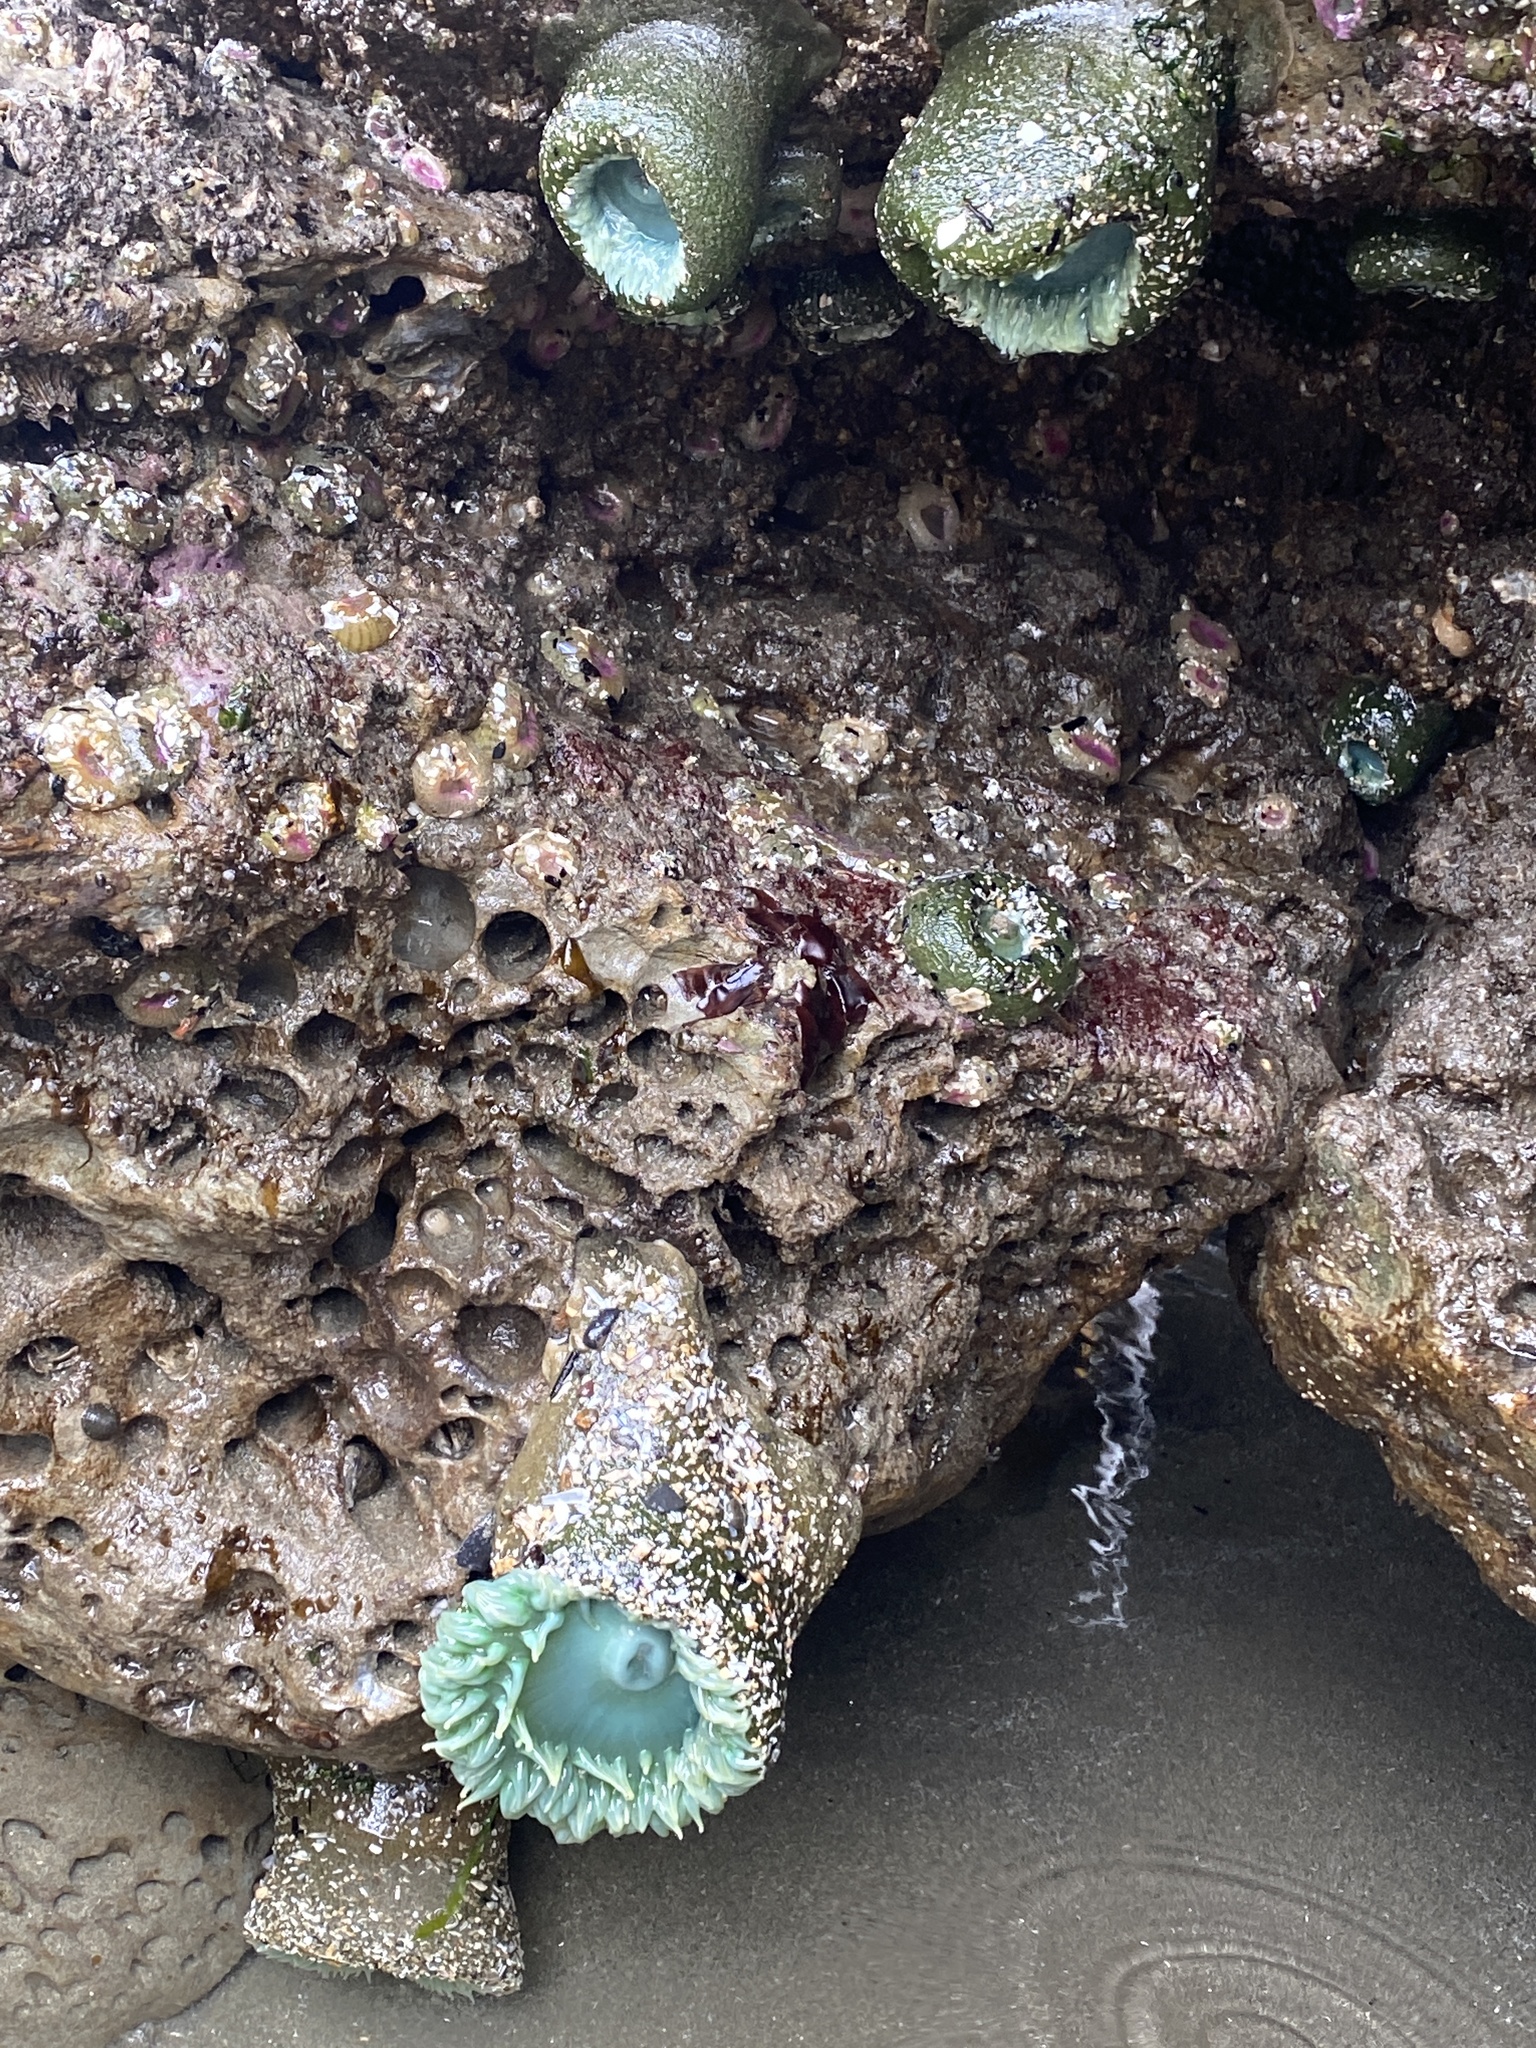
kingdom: Animalia
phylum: Cnidaria
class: Anthozoa
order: Actiniaria
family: Actiniidae
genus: Anthopleura
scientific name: Anthopleura xanthogrammica
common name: Giant green anemone
